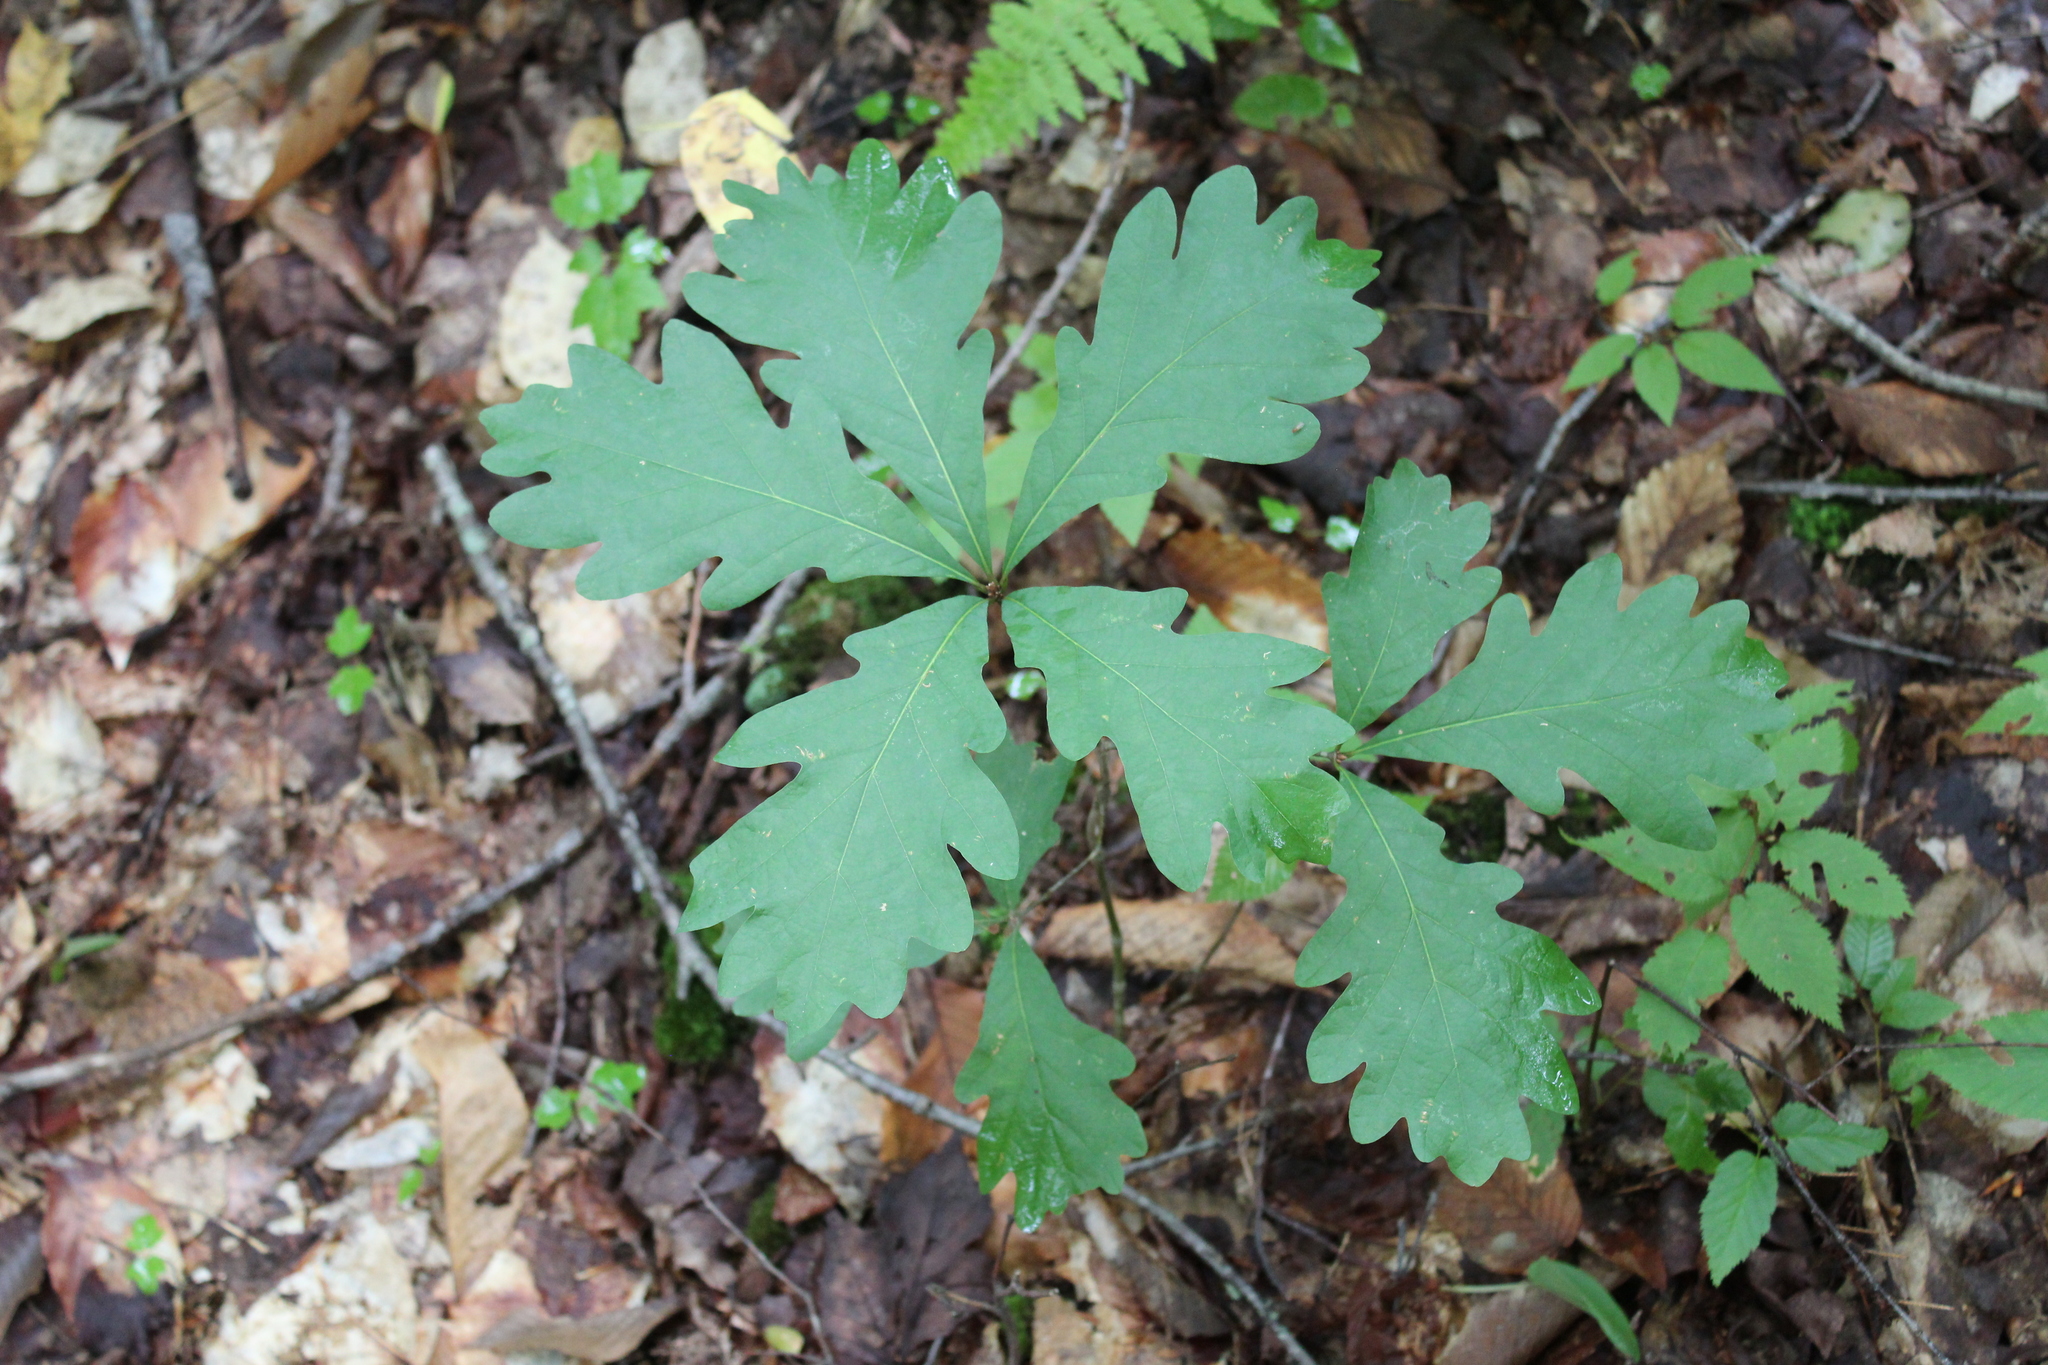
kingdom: Plantae
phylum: Tracheophyta
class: Magnoliopsida
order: Fagales
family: Fagaceae
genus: Quercus
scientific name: Quercus alba
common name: White oak
